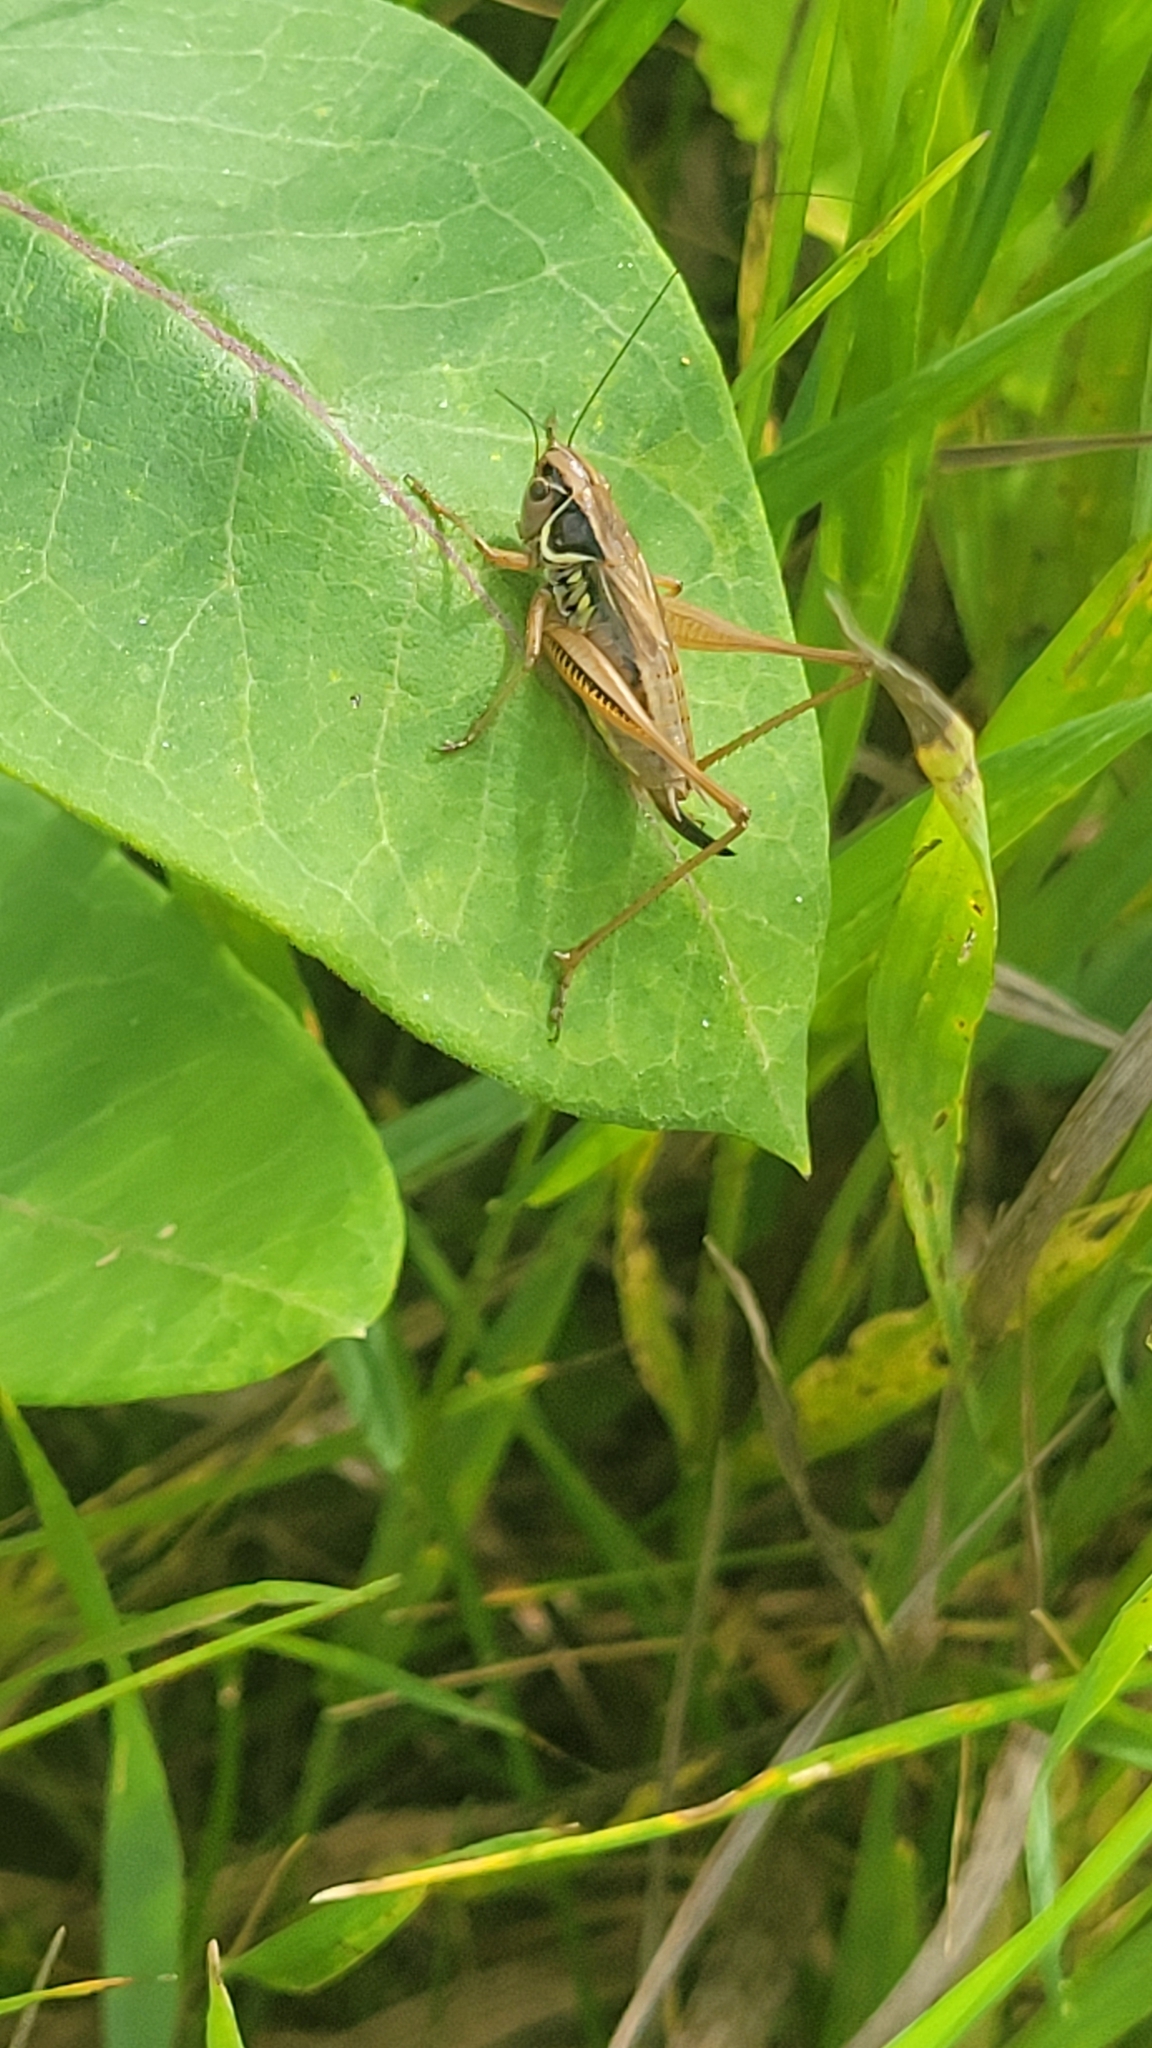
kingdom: Animalia
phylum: Arthropoda
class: Insecta
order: Orthoptera
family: Tettigoniidae
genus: Roeseliana
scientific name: Roeseliana roeselii
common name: Roesel's bush cricket
